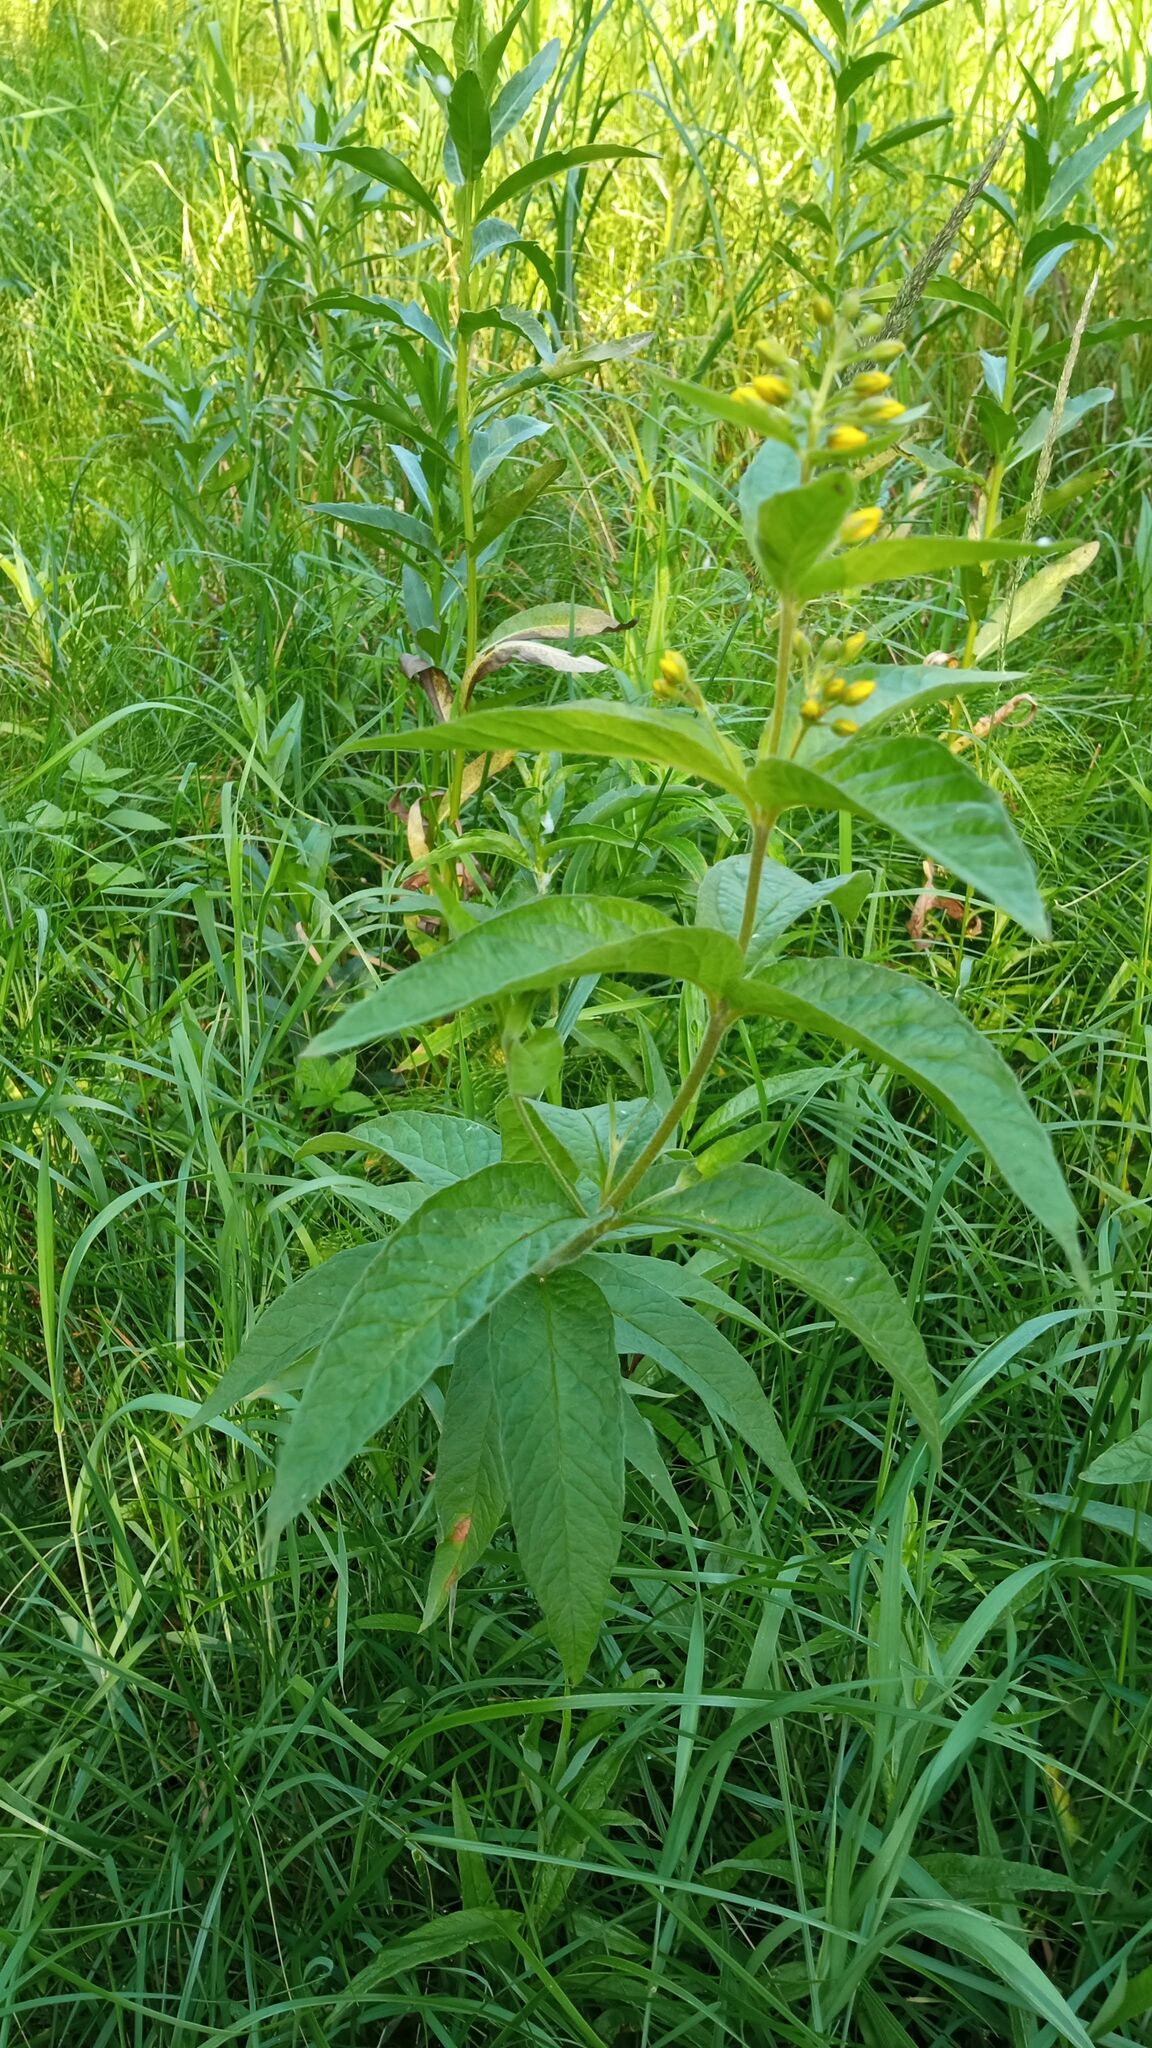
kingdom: Plantae
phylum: Tracheophyta
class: Magnoliopsida
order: Ericales
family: Primulaceae
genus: Lysimachia
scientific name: Lysimachia vulgaris
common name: Yellow loosestrife
